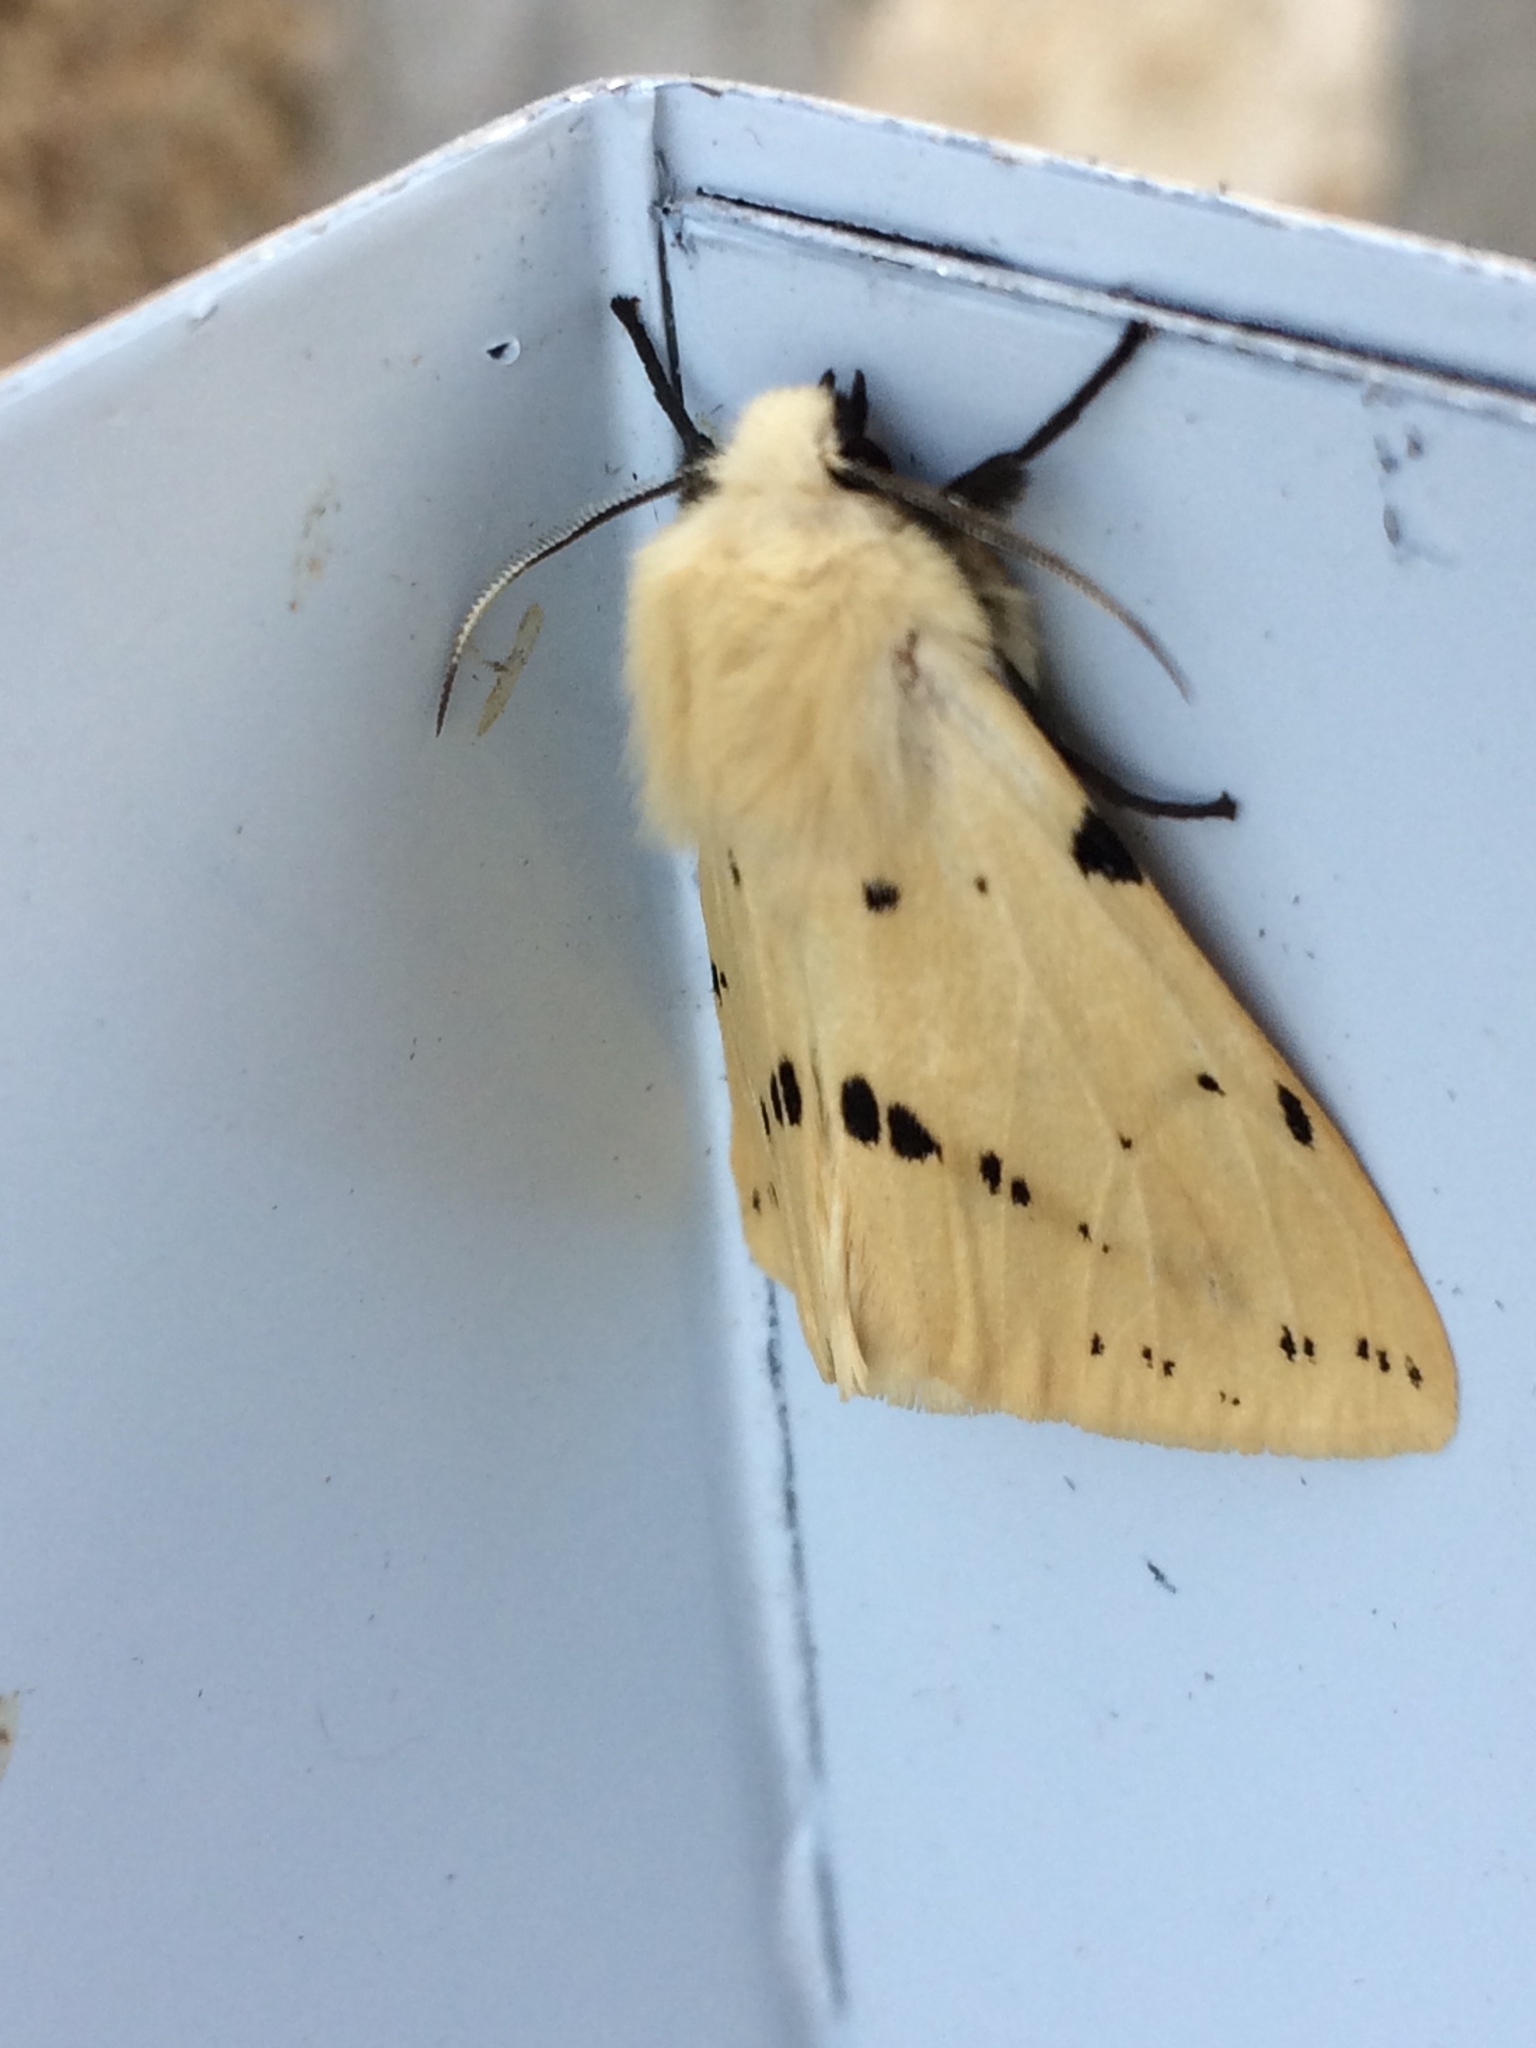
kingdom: Animalia
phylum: Arthropoda
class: Insecta
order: Lepidoptera
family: Erebidae
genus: Spilarctia
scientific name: Spilarctia lutea
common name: Buff ermine
